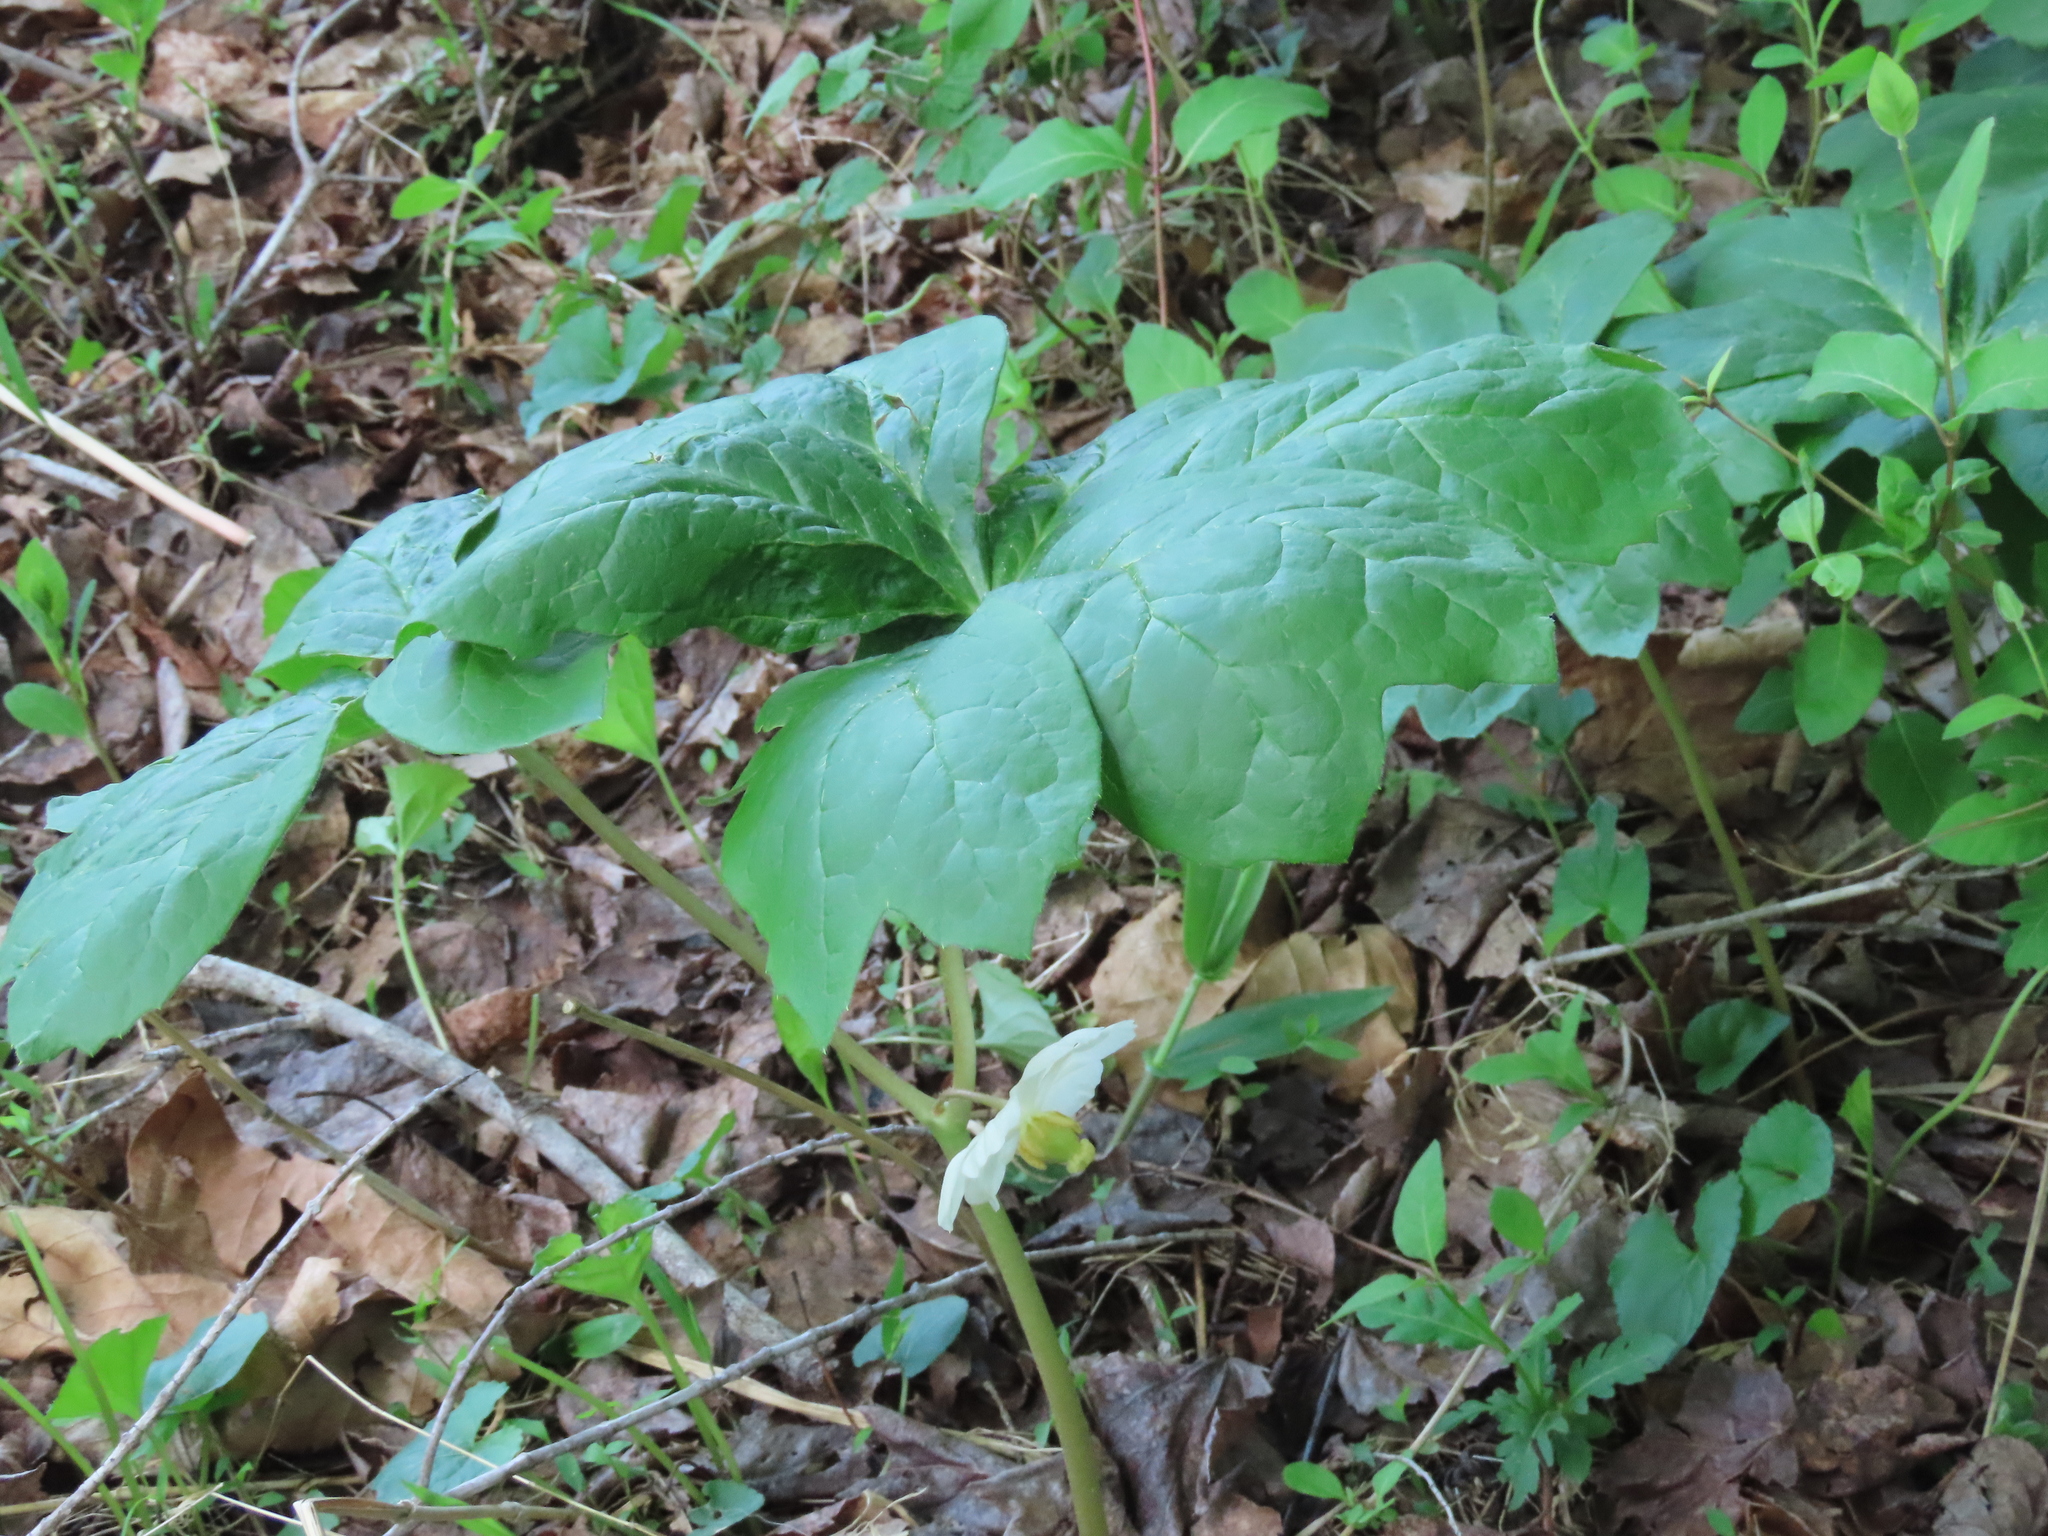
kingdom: Plantae
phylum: Tracheophyta
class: Magnoliopsida
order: Ranunculales
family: Berberidaceae
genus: Podophyllum
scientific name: Podophyllum peltatum
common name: Wild mandrake
